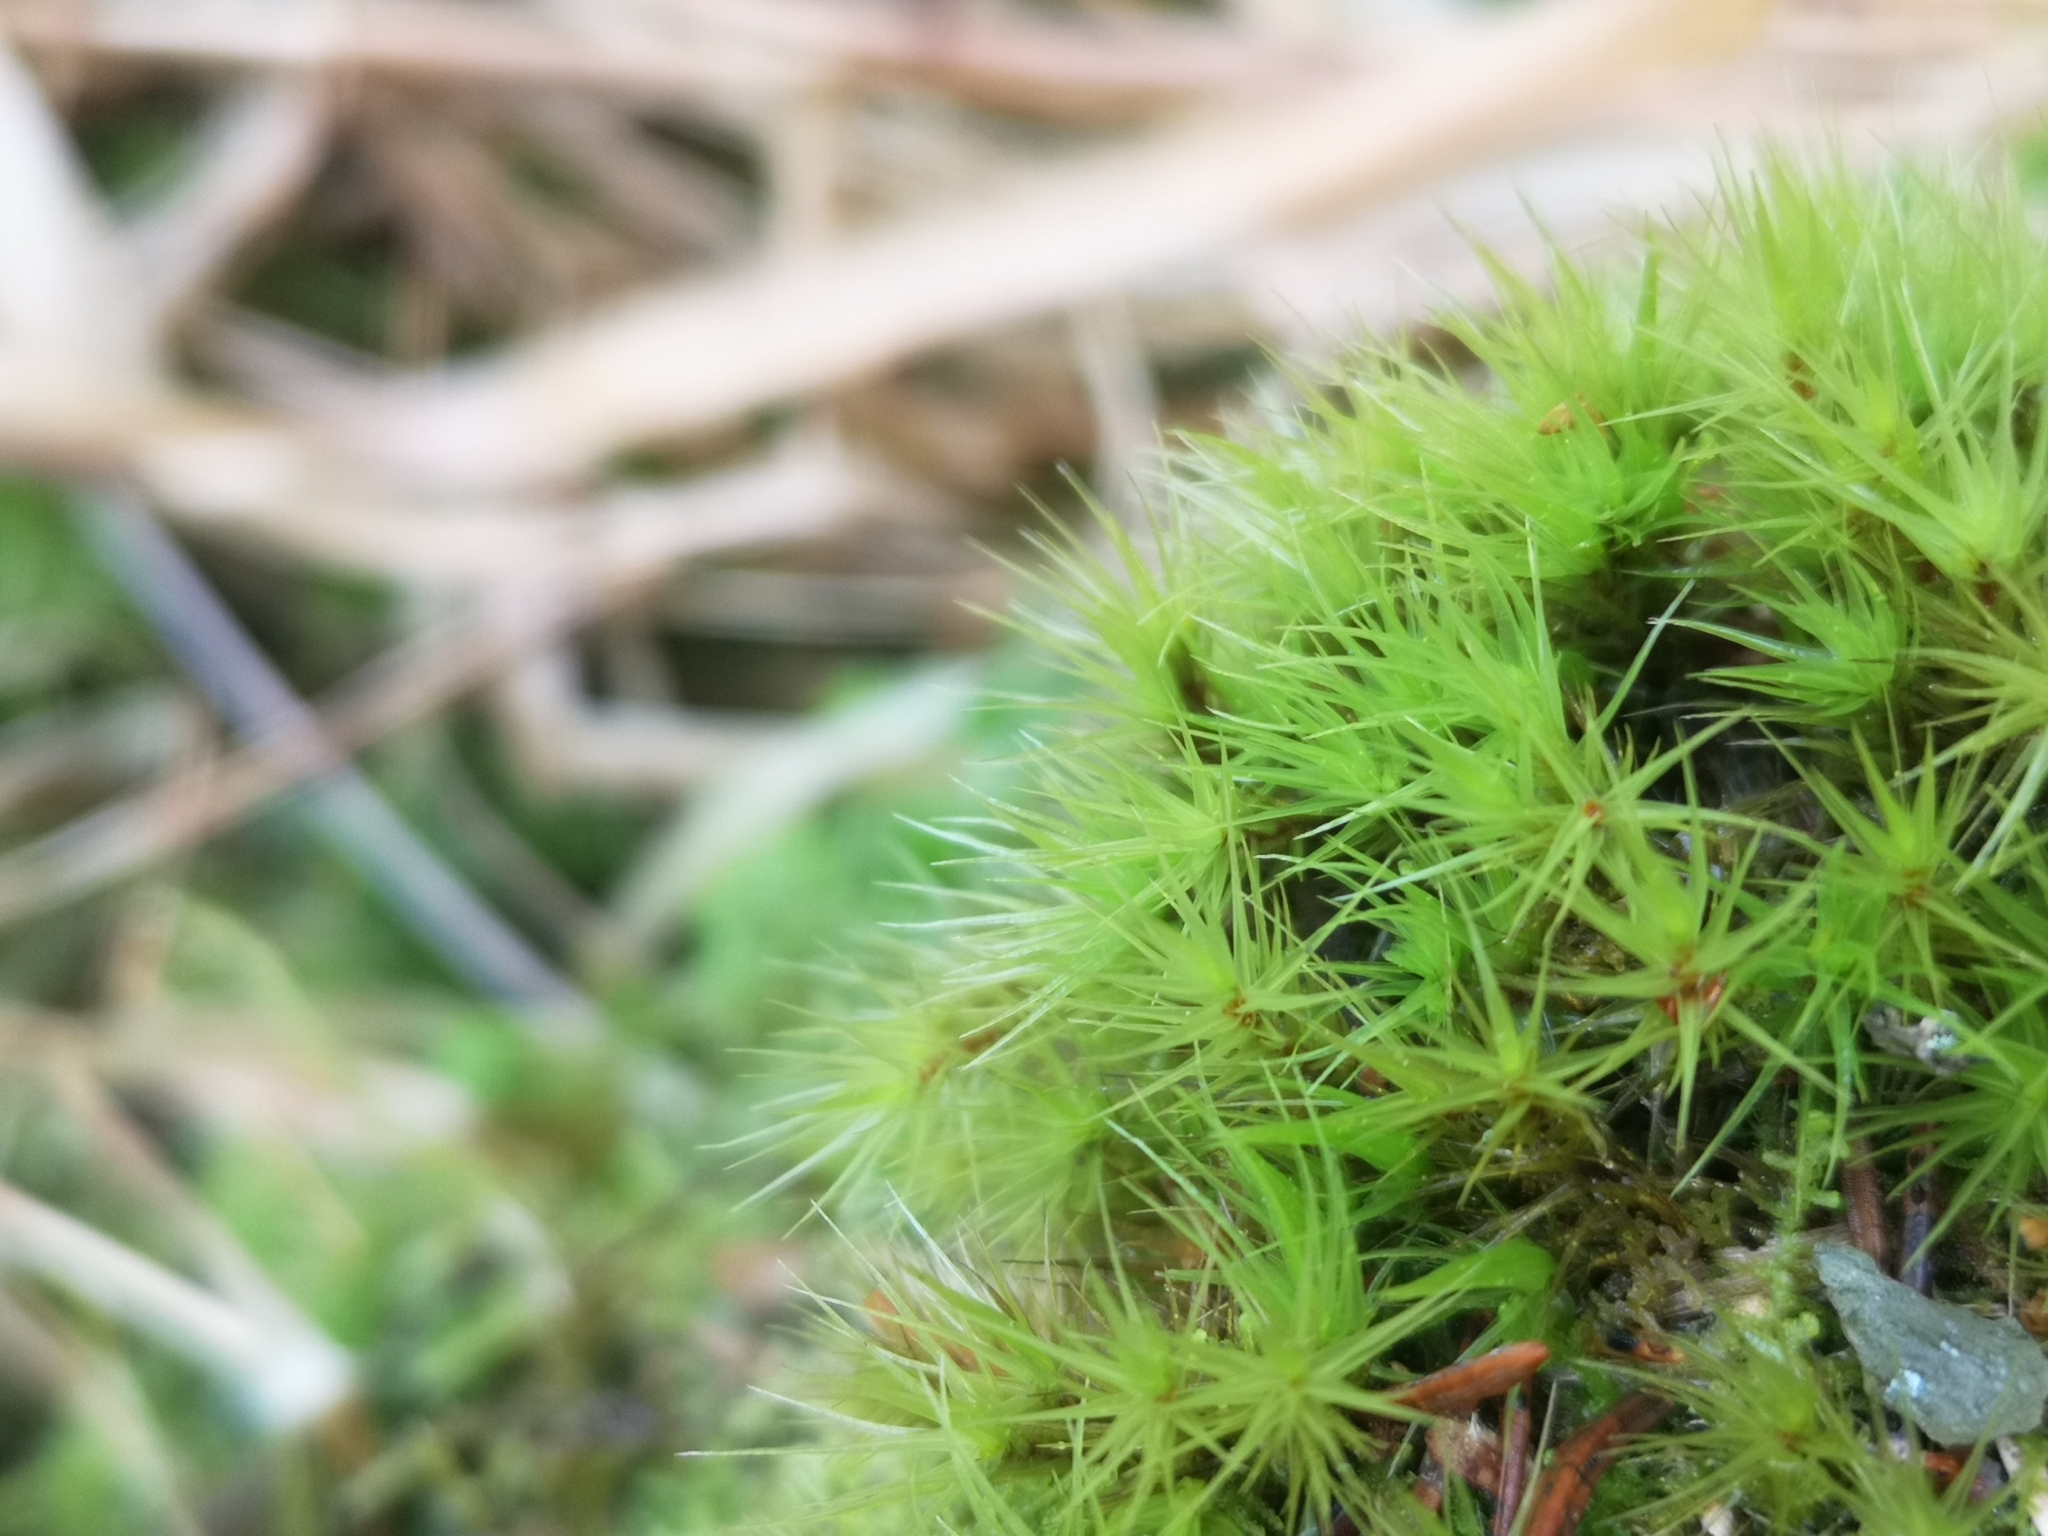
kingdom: Plantae
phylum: Bryophyta
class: Bryopsida
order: Dicranales
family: Dicranaceae
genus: Dicranum
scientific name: Dicranum scoparium
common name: Broom fork-moss
